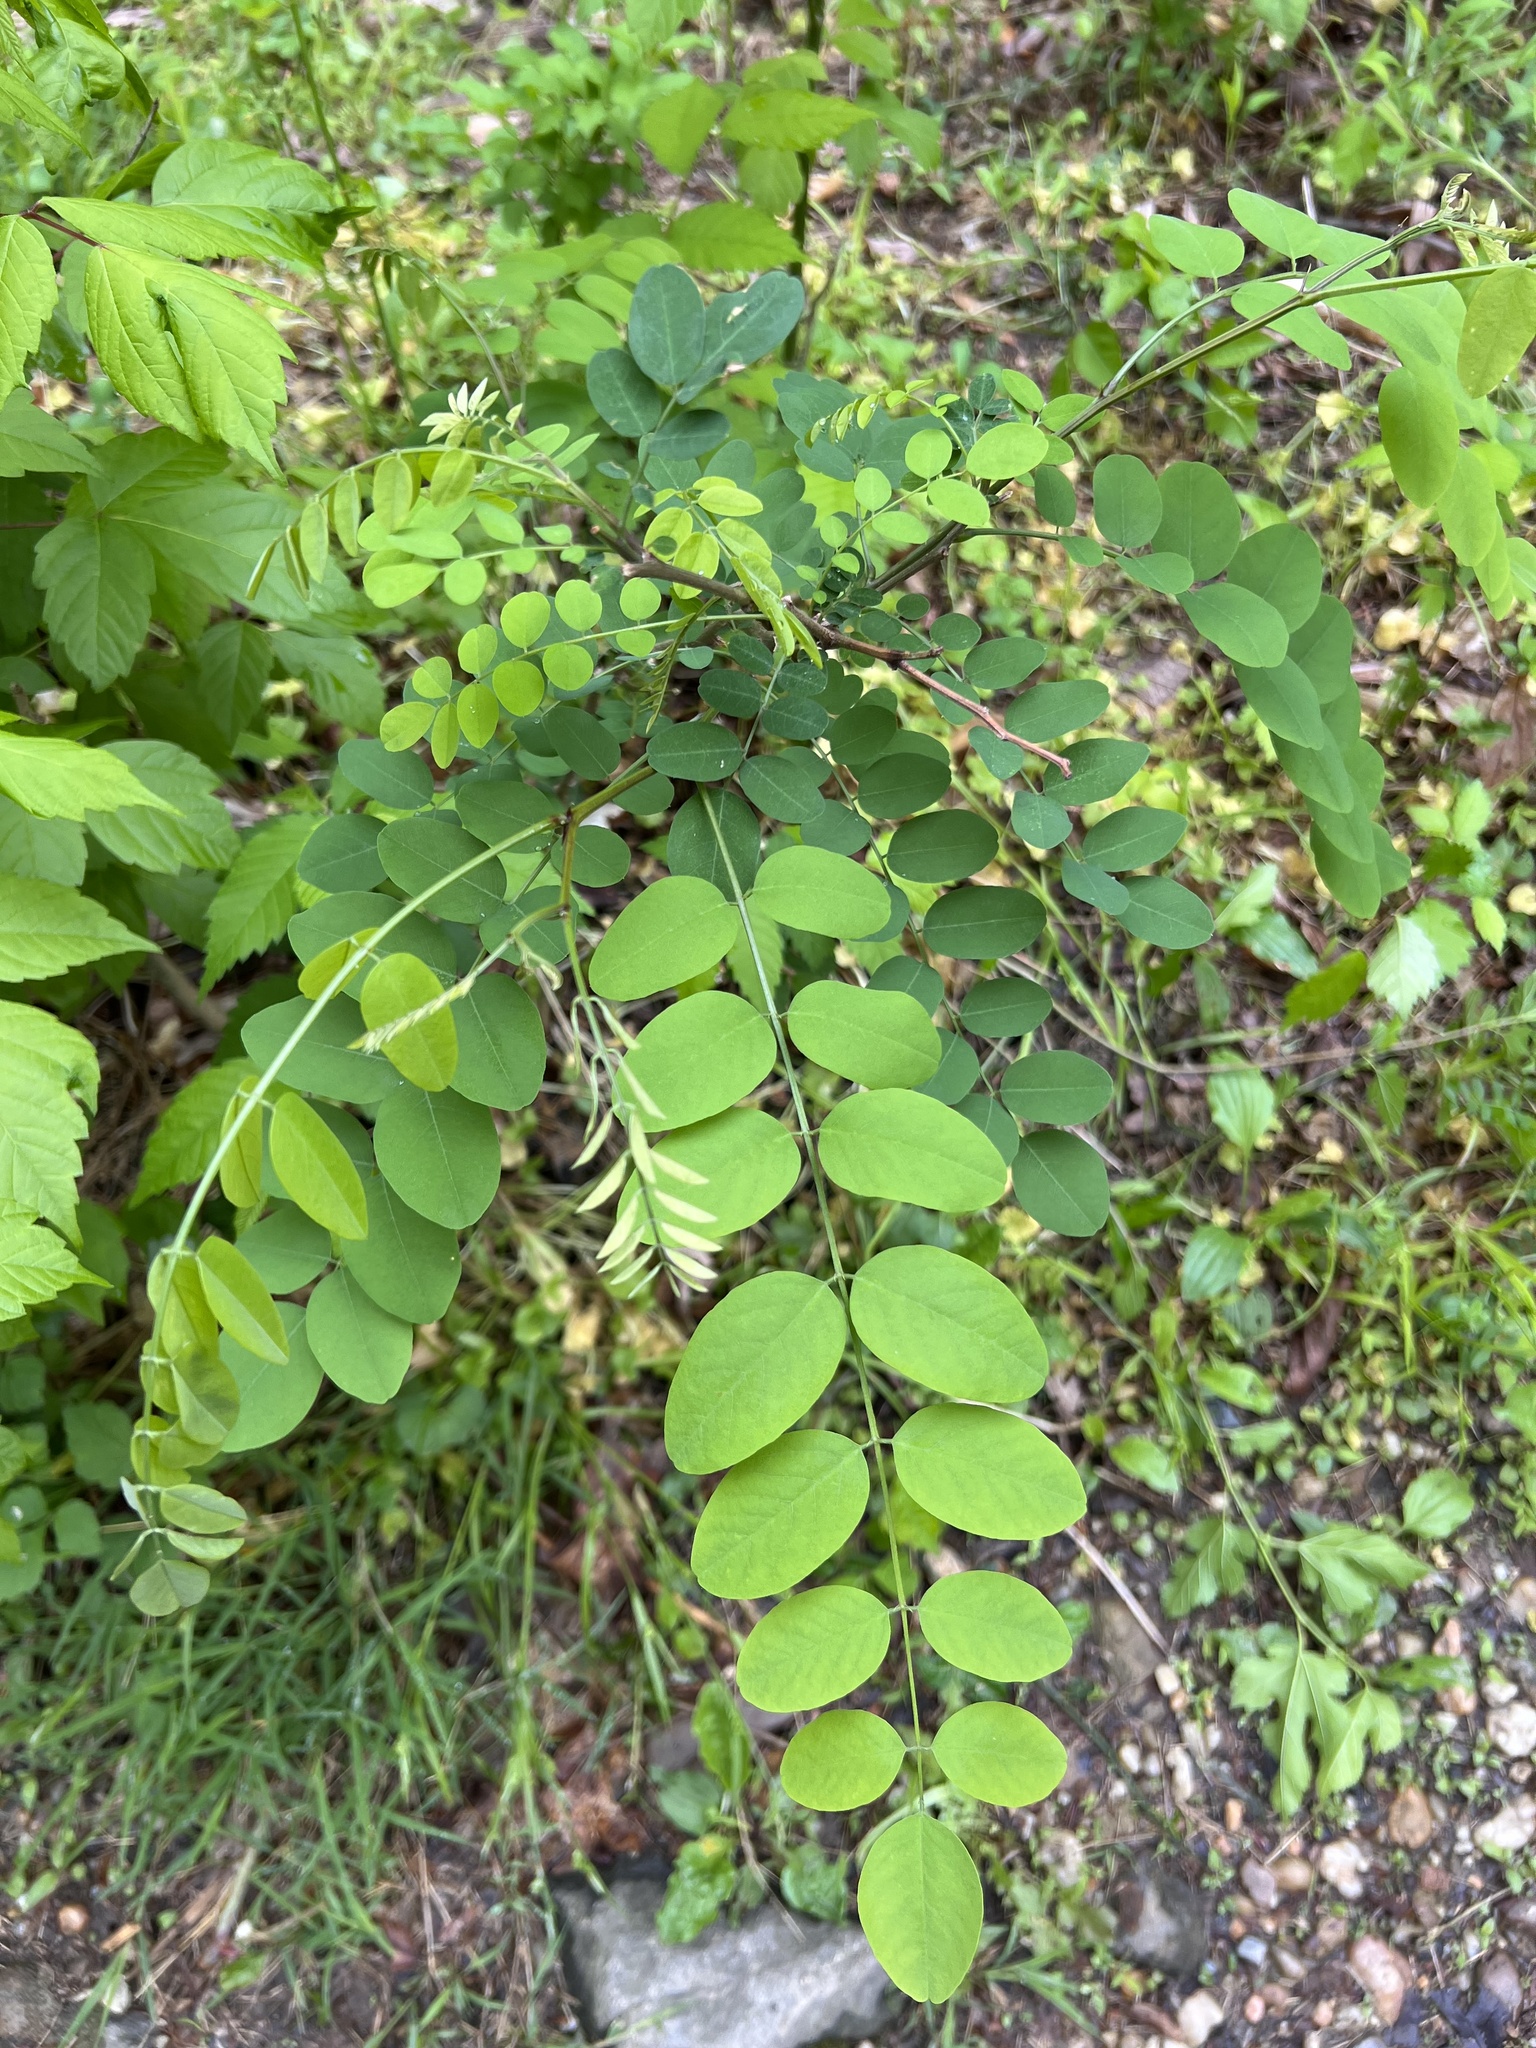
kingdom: Plantae
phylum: Tracheophyta
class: Magnoliopsida
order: Fabales
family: Fabaceae
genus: Robinia
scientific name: Robinia pseudoacacia
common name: Black locust
